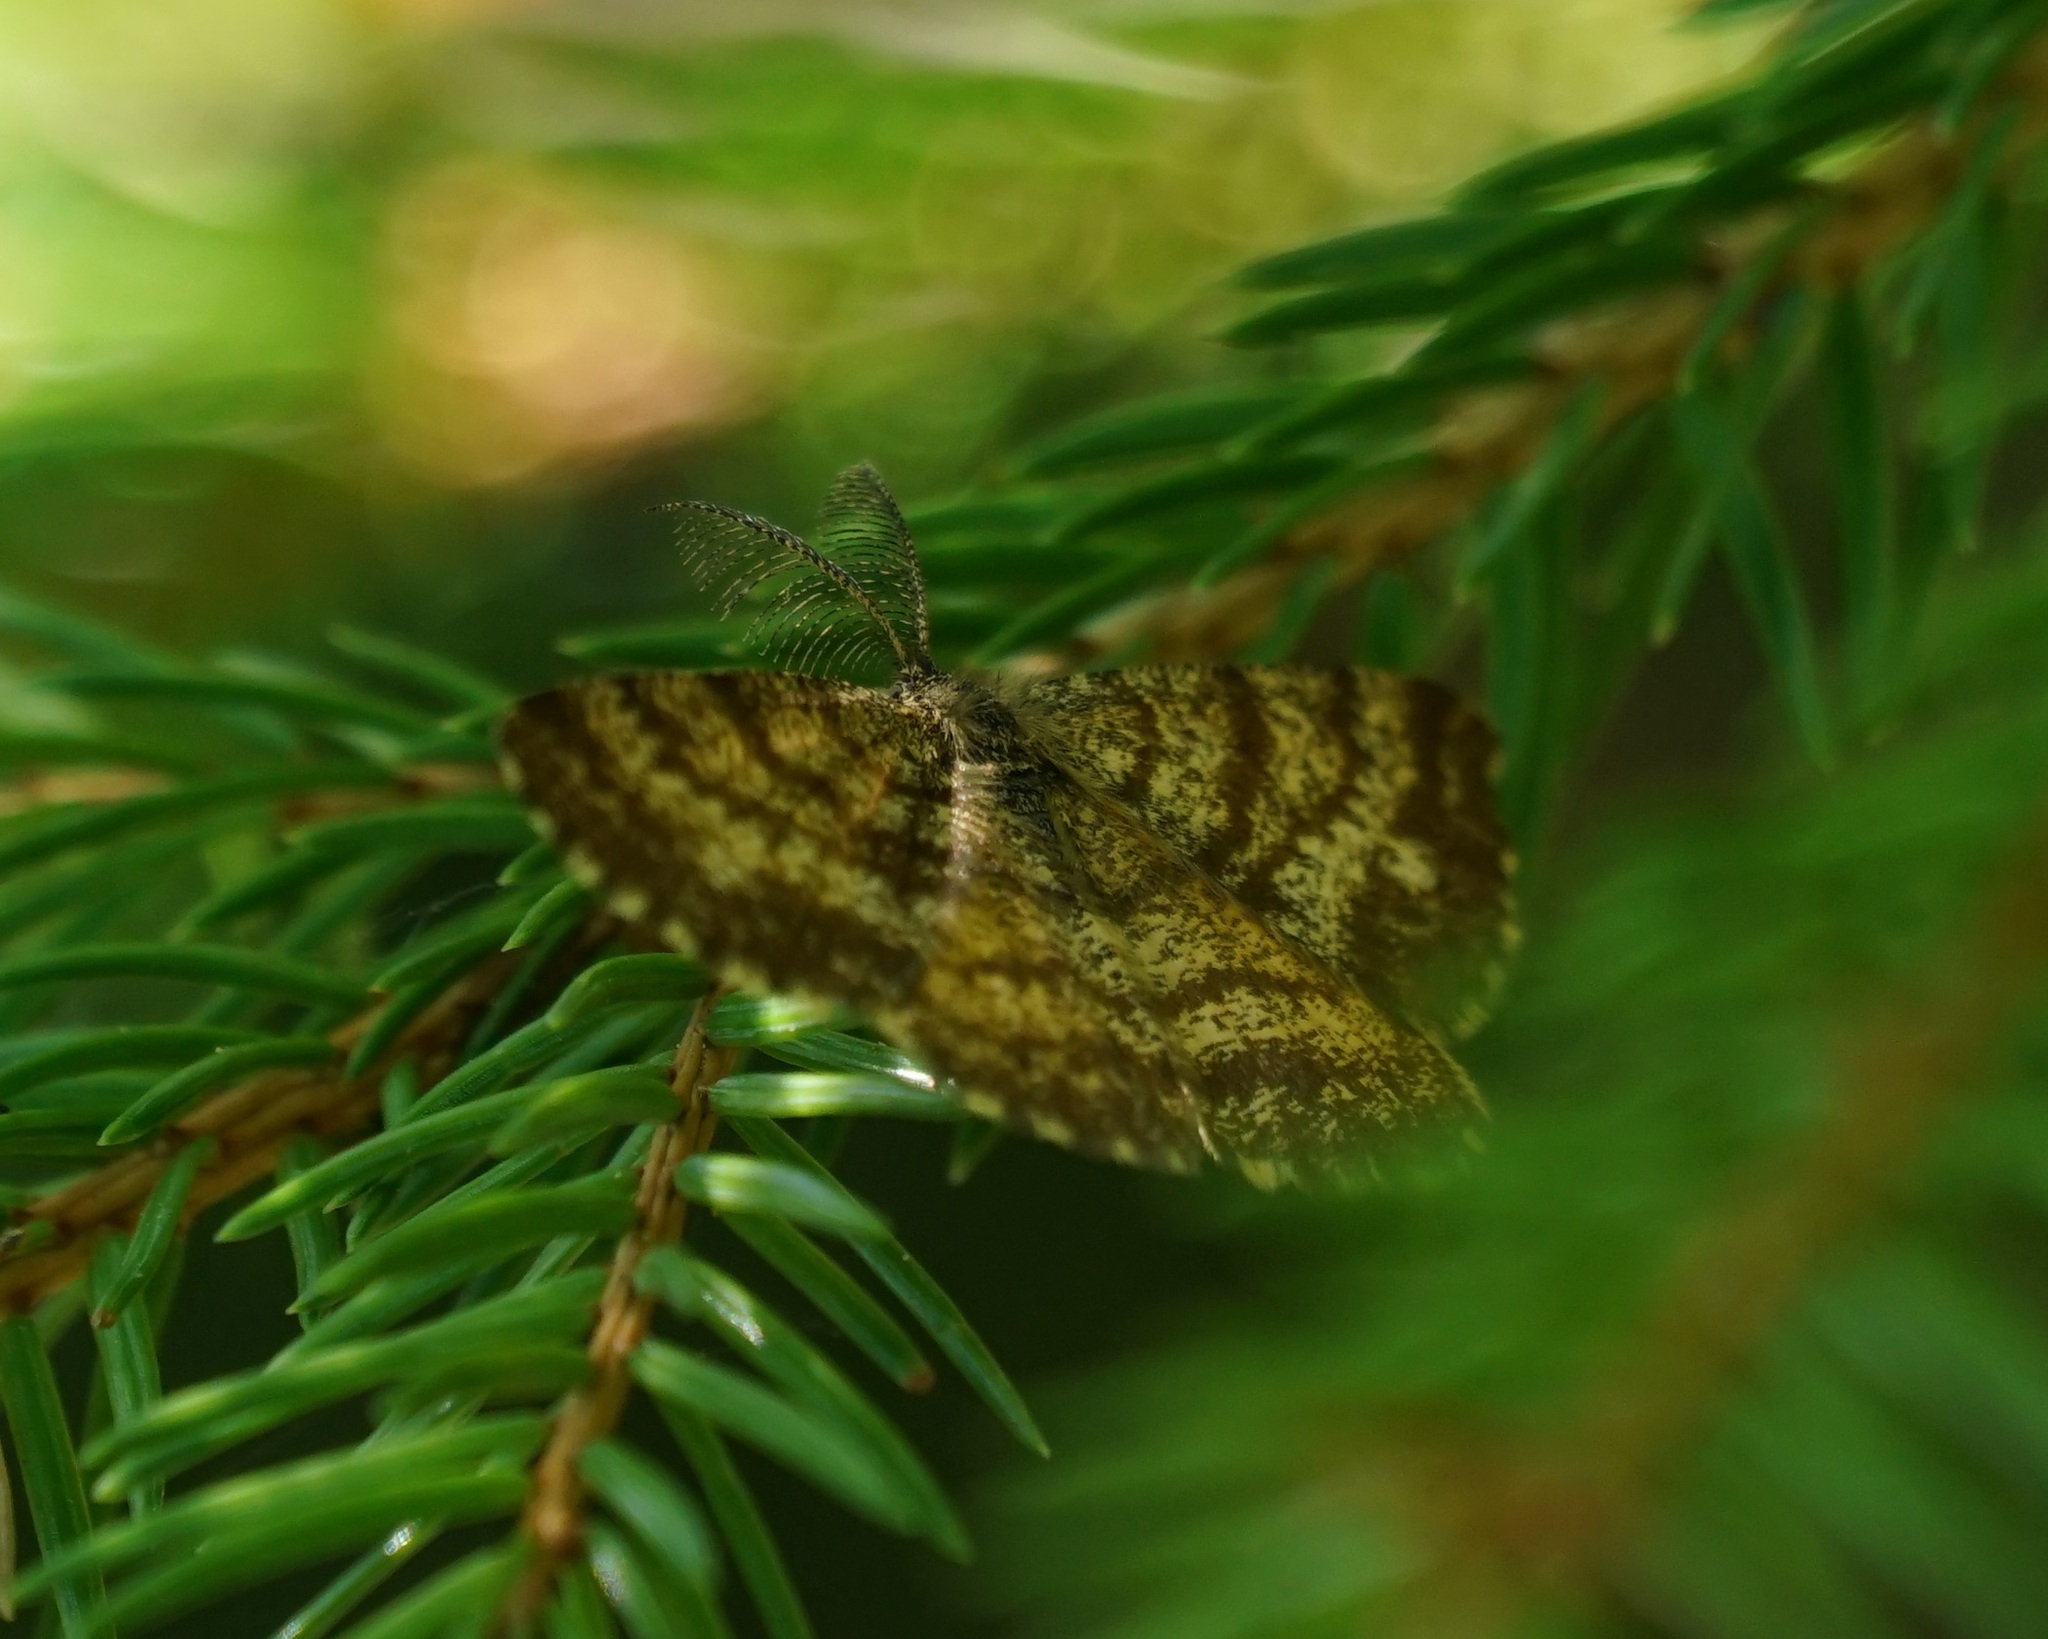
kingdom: Animalia
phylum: Arthropoda
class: Insecta
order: Lepidoptera
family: Geometridae
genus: Ematurga
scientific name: Ematurga atomaria
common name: Common heath
